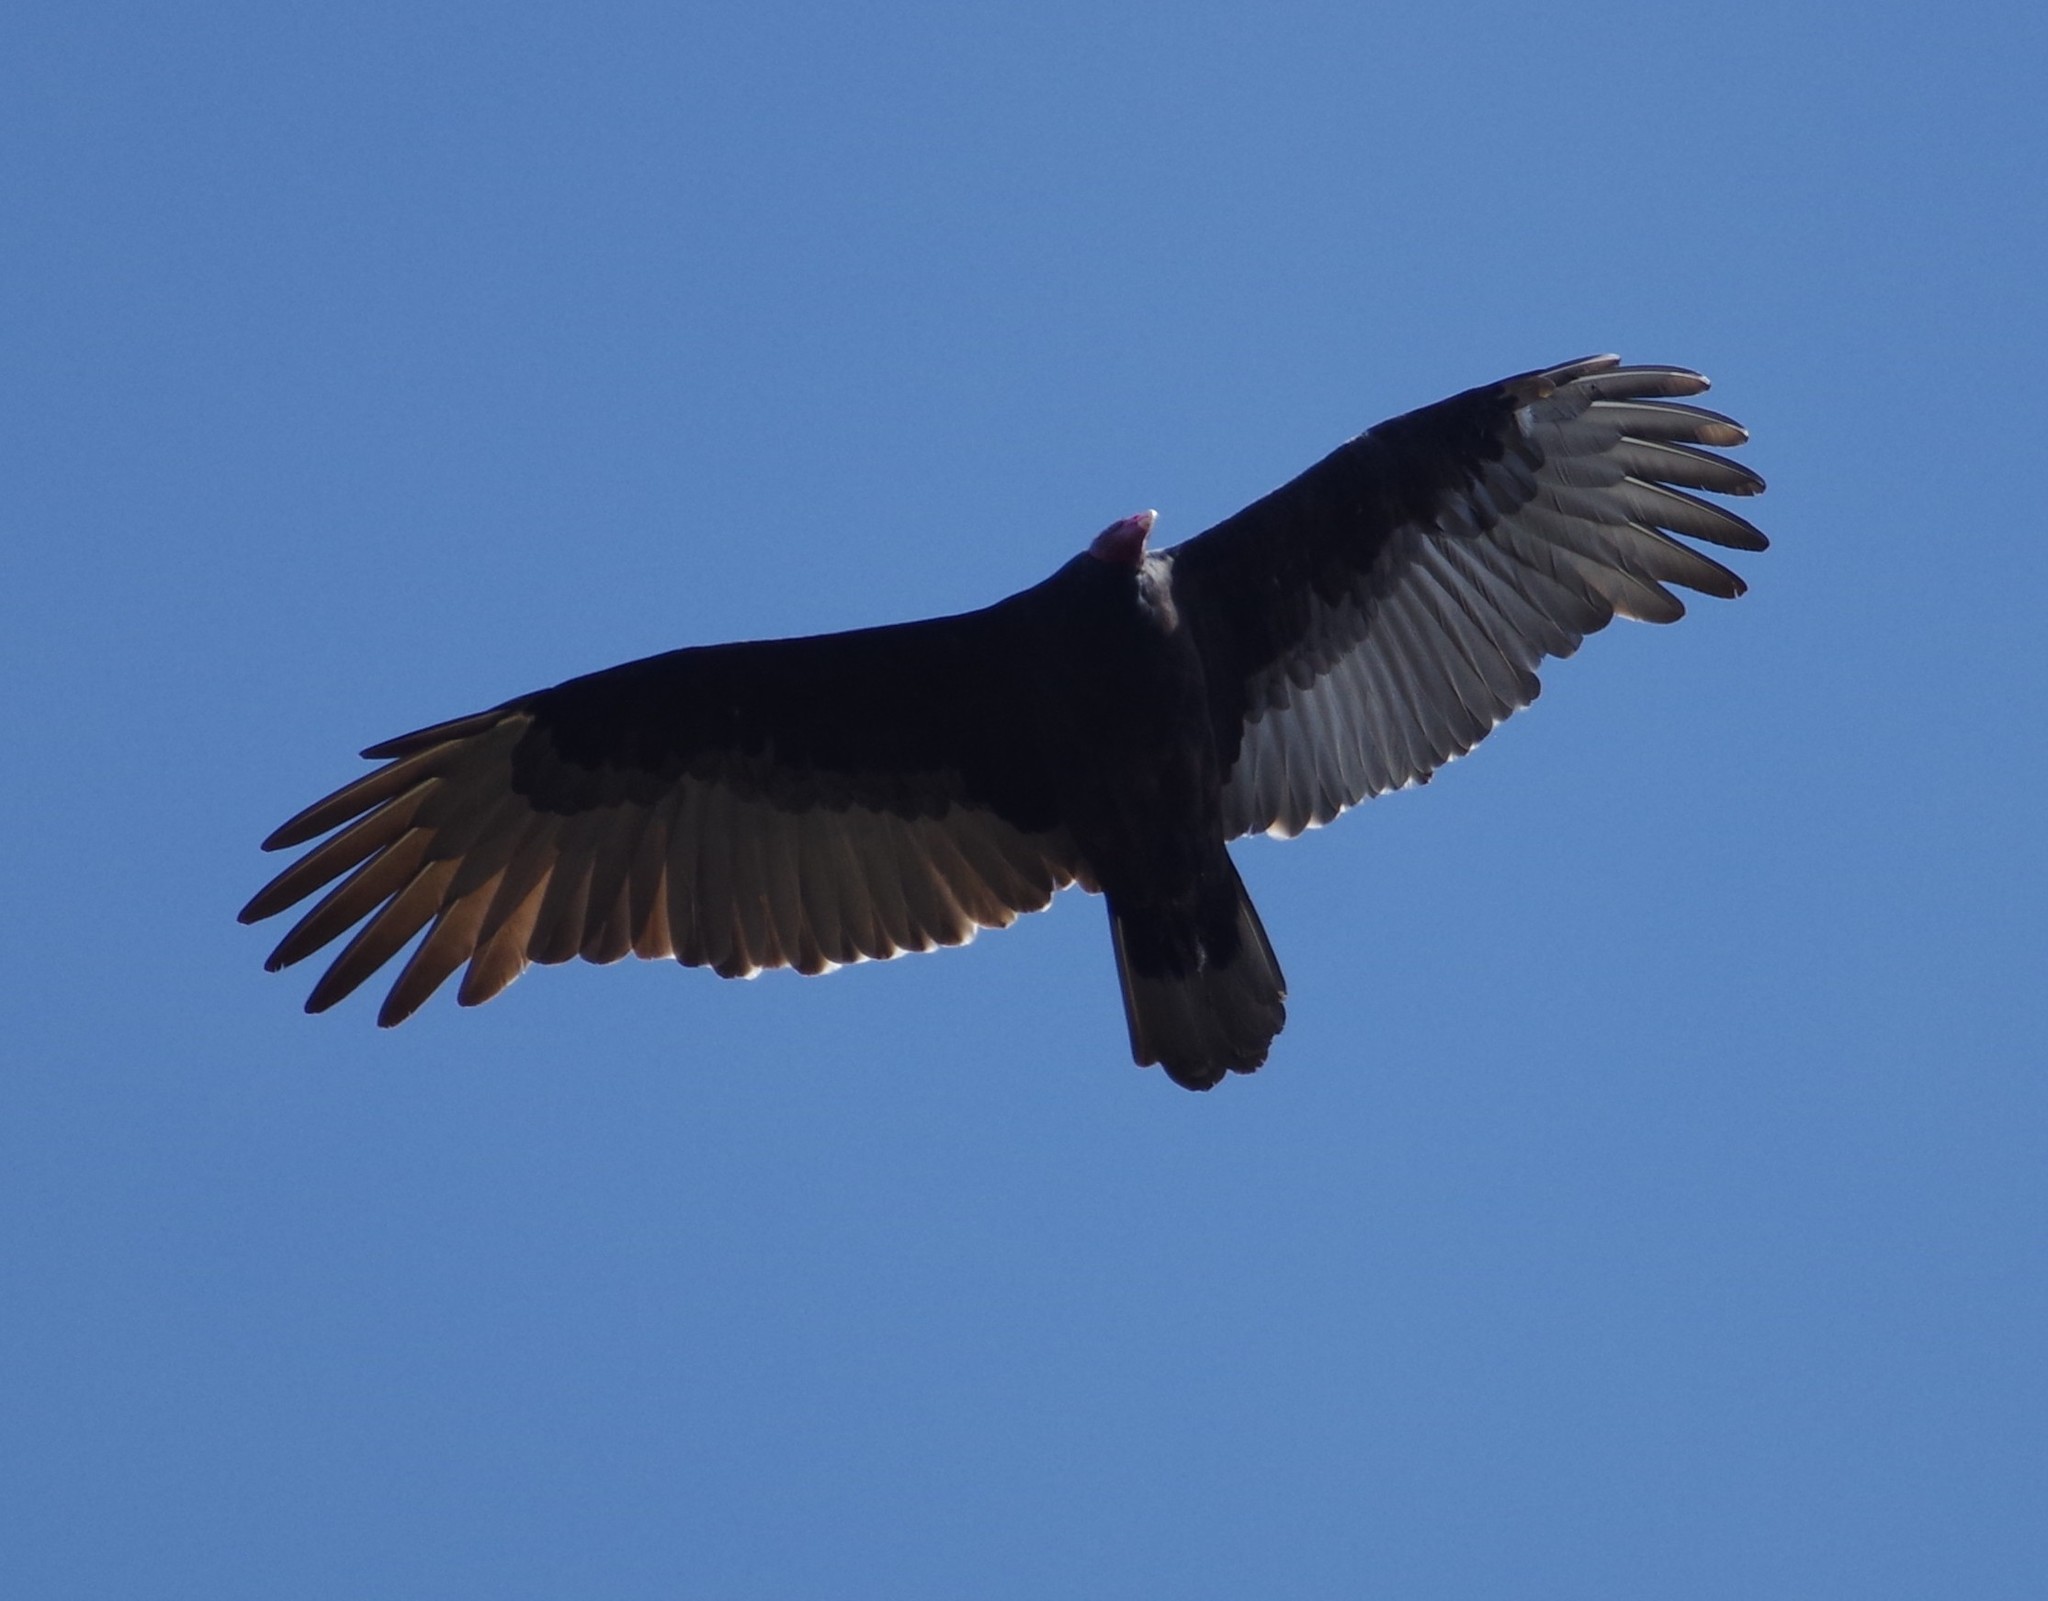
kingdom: Animalia
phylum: Chordata
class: Aves
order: Accipitriformes
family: Cathartidae
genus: Cathartes
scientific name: Cathartes aura
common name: Turkey vulture
